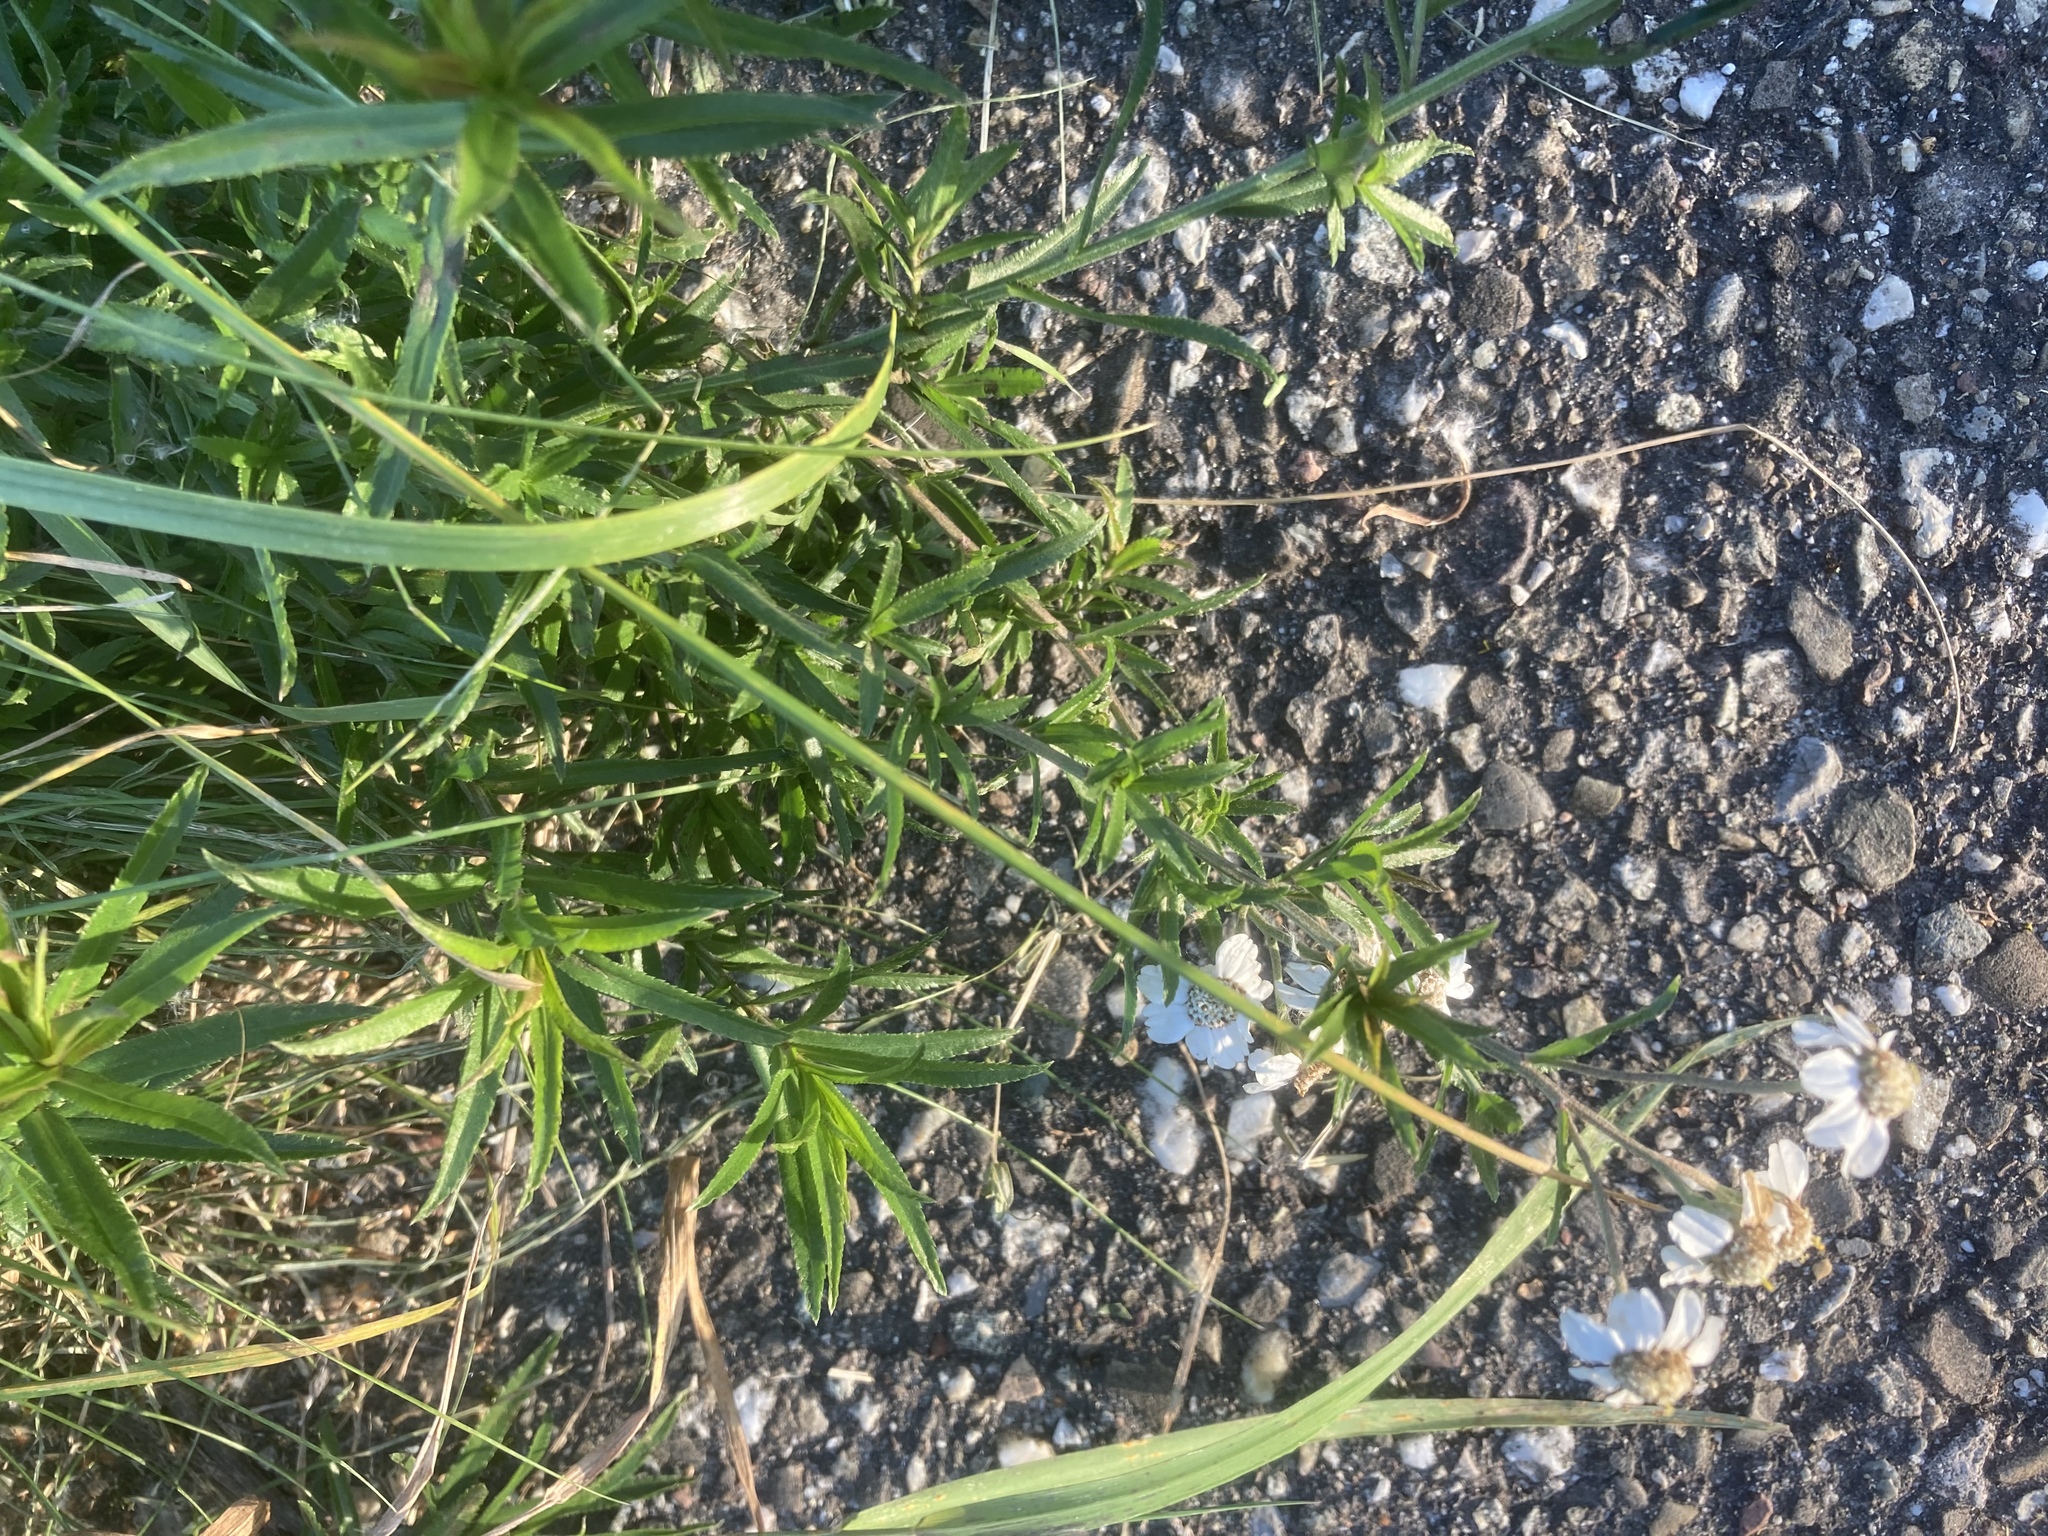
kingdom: Plantae
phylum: Tracheophyta
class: Magnoliopsida
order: Asterales
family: Asteraceae
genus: Achillea
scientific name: Achillea ptarmica
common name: Sneezeweed
